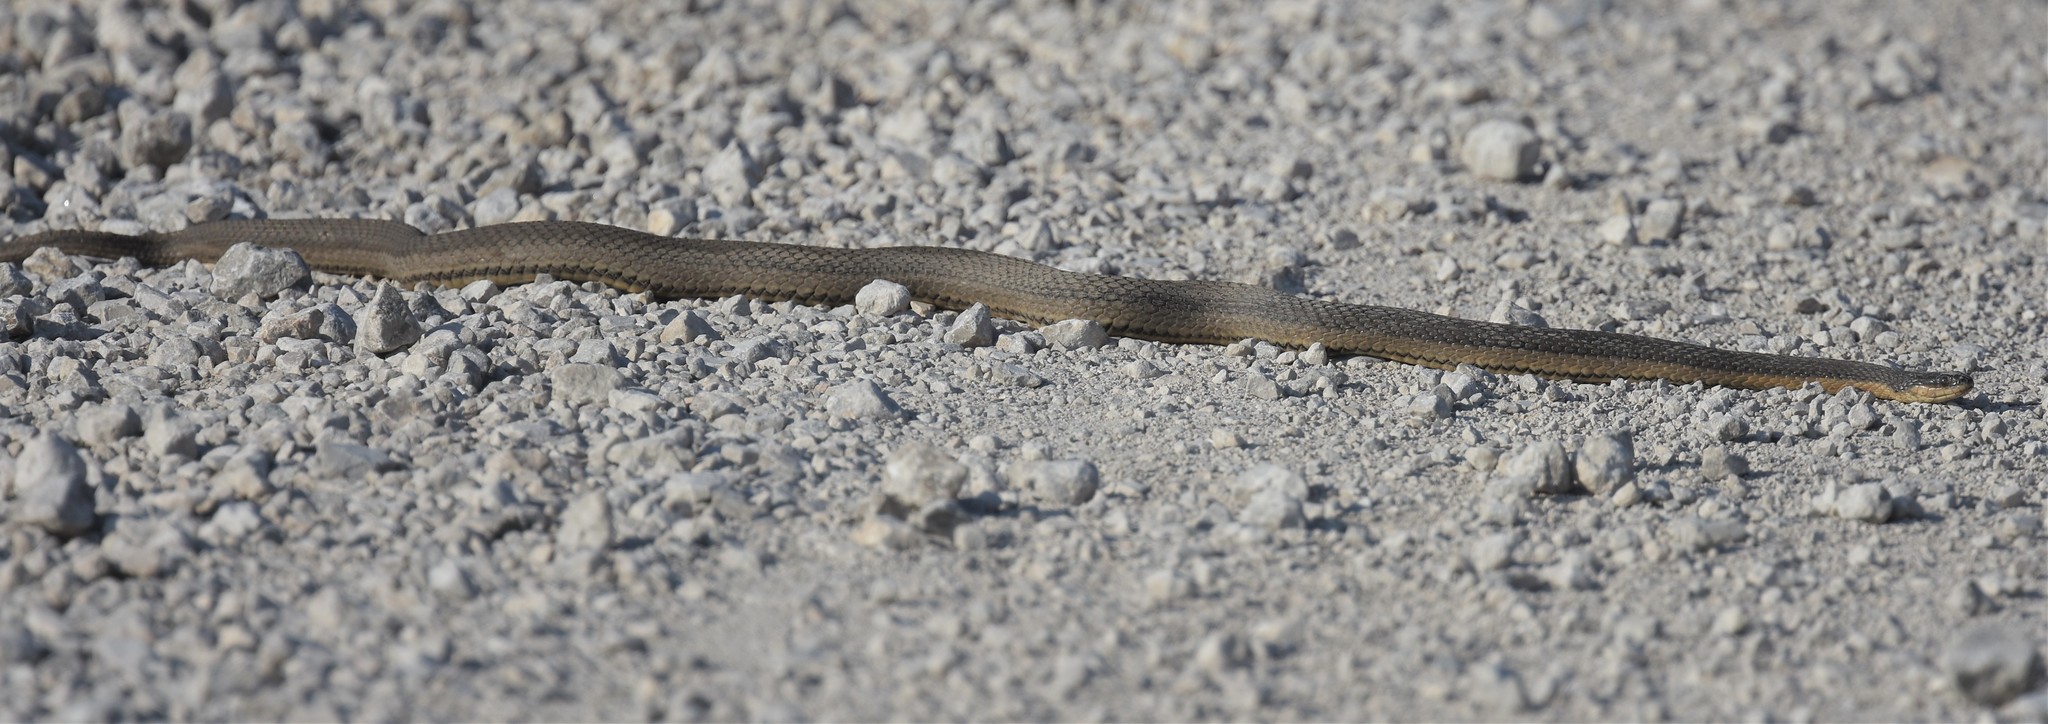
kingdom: Animalia
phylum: Chordata
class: Squamata
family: Colubridae
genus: Regina
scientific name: Regina grahamii
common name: Graham's crayfish snake
